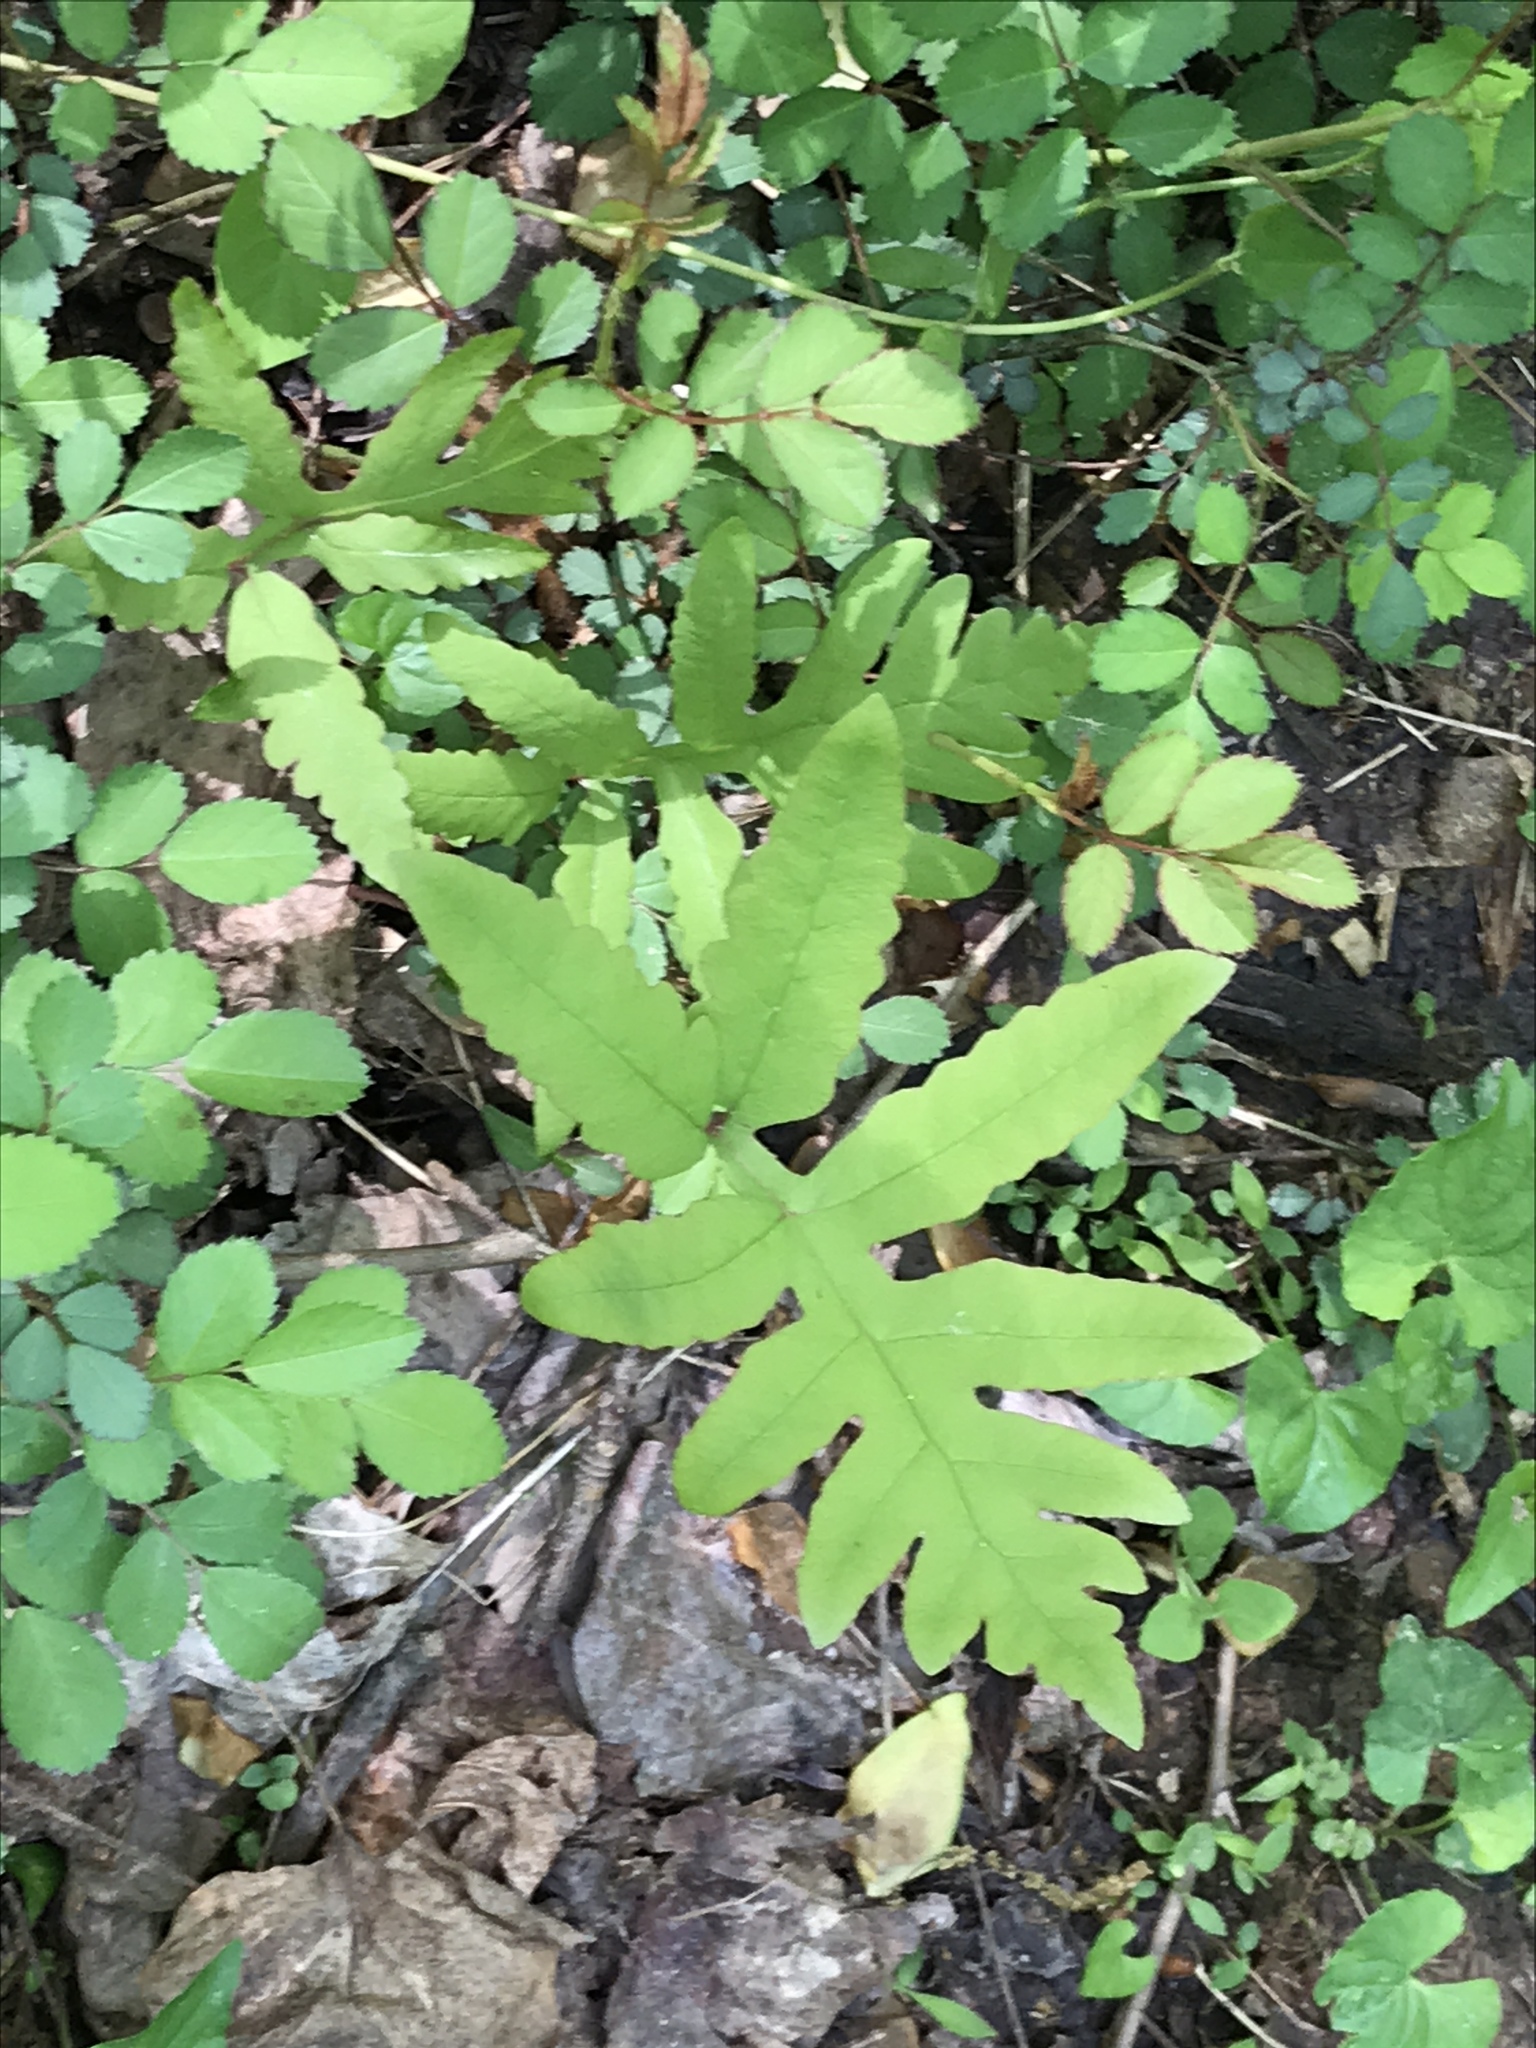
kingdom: Plantae
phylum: Tracheophyta
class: Polypodiopsida
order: Polypodiales
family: Onocleaceae
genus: Onoclea
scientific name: Onoclea sensibilis
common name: Sensitive fern
